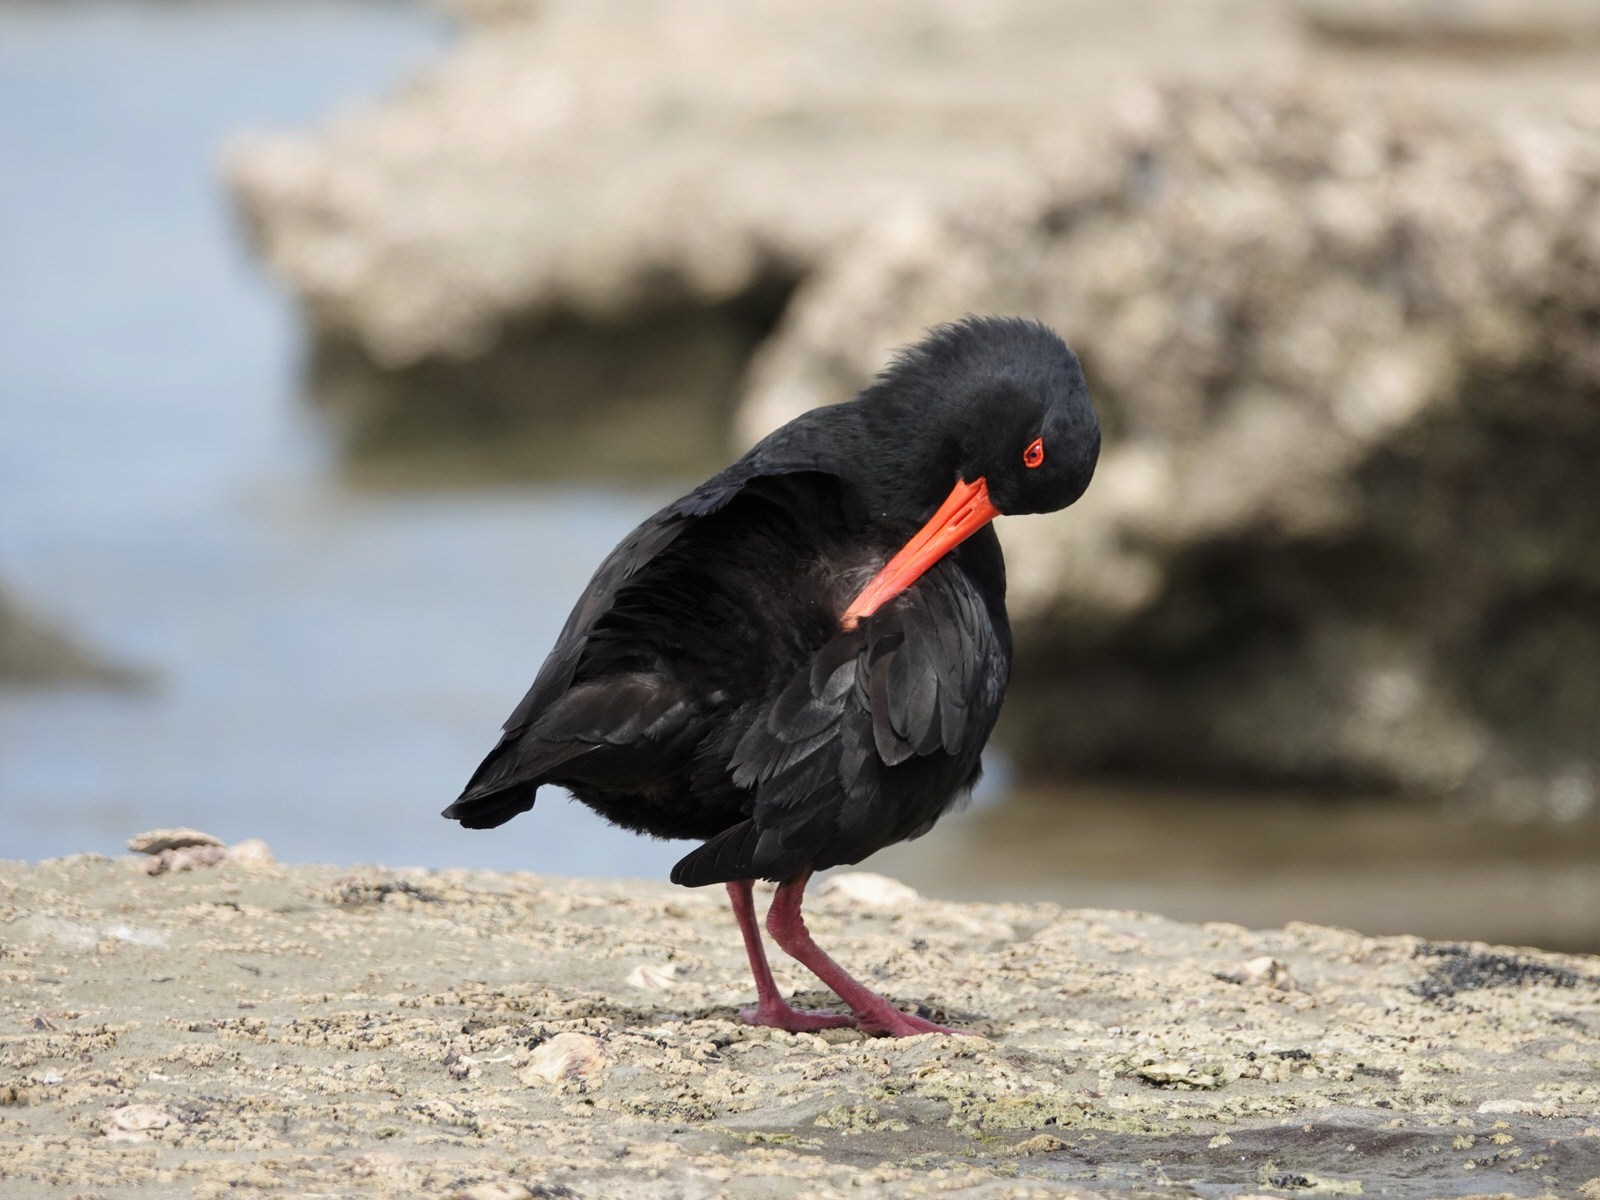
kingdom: Animalia
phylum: Chordata
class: Aves
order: Charadriiformes
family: Haematopodidae
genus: Haematopus
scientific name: Haematopus unicolor
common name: Variable oystercatcher
